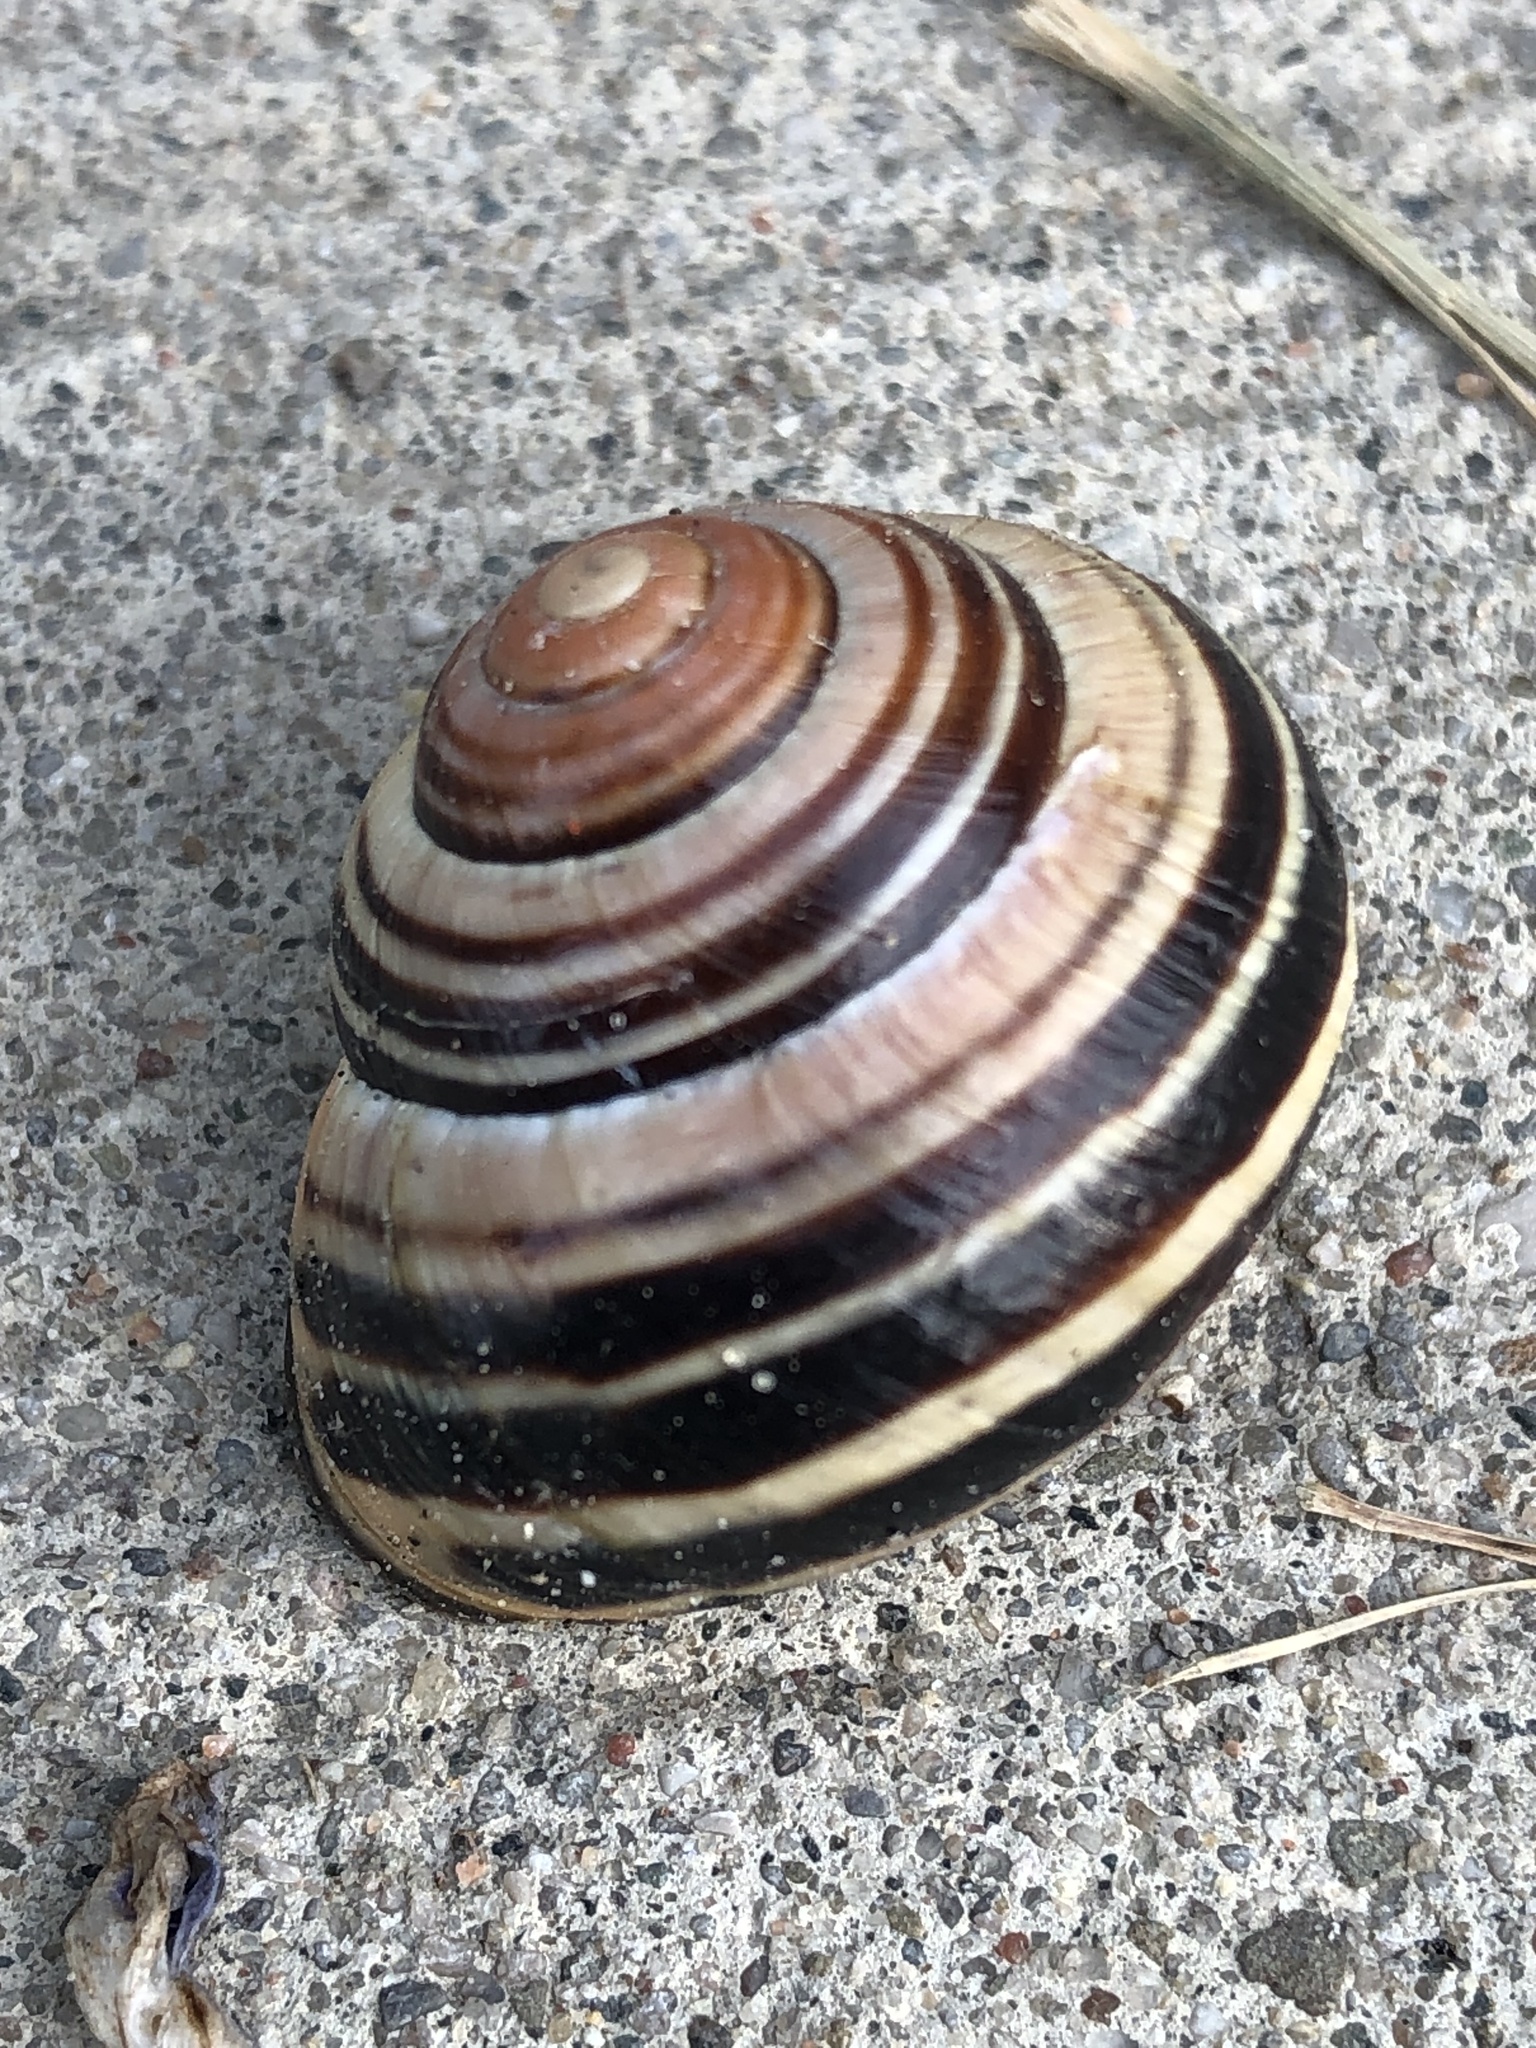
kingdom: Animalia
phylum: Mollusca
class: Gastropoda
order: Stylommatophora
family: Helicidae
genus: Cepaea
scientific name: Cepaea nemoralis
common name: Grovesnail
